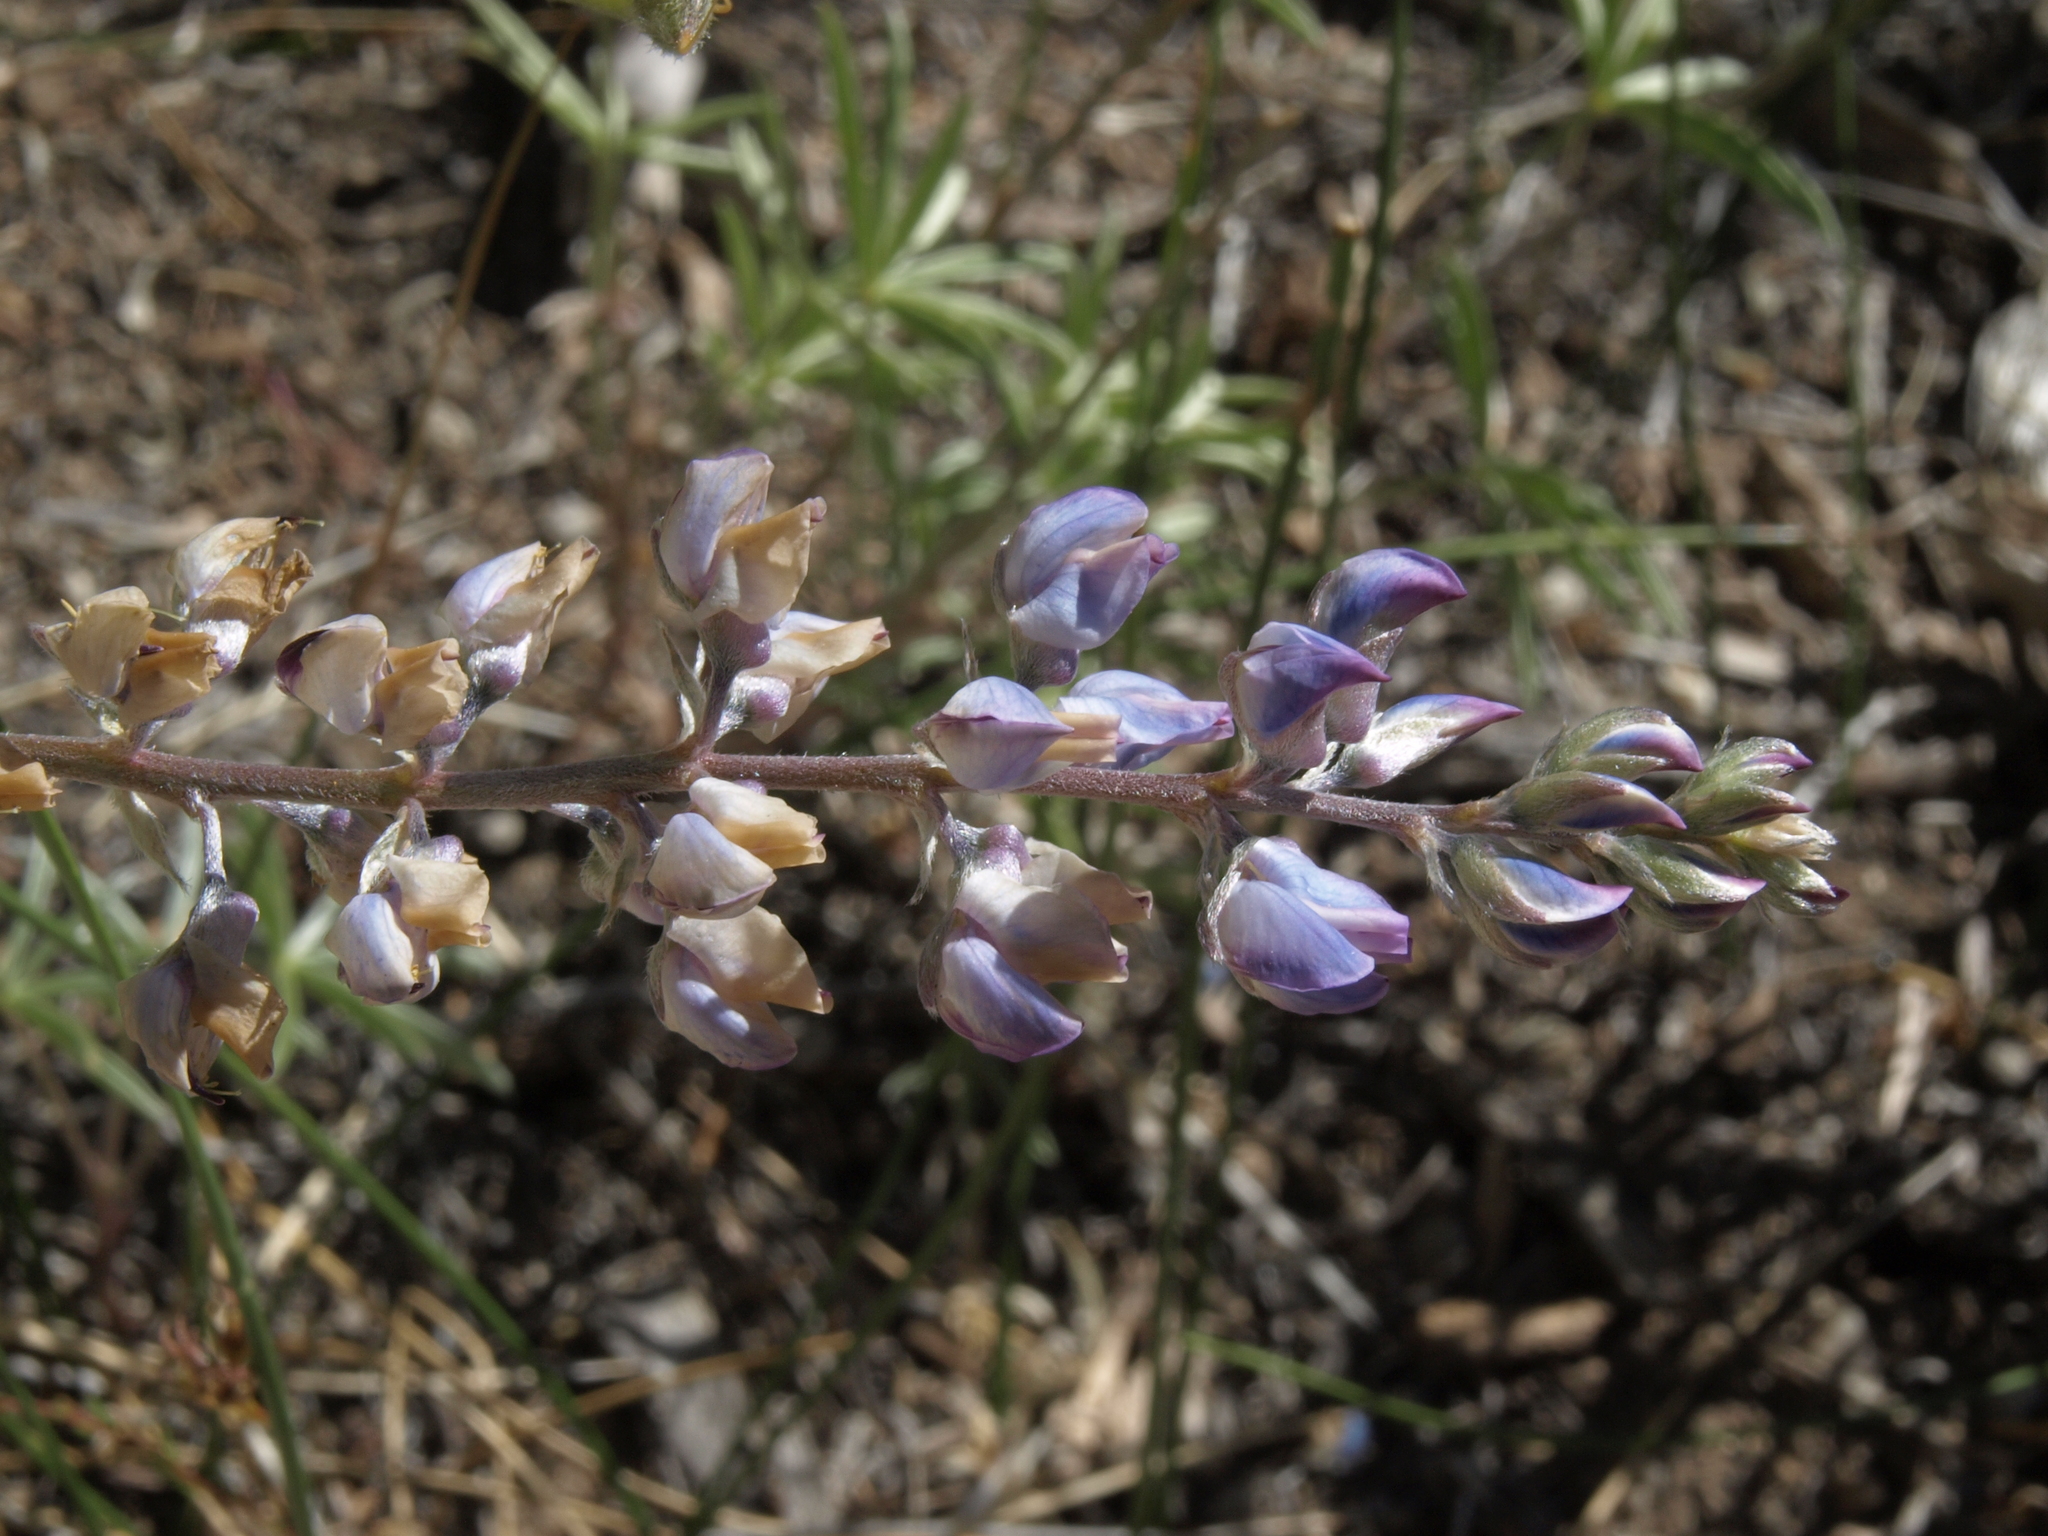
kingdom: Plantae
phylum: Tracheophyta
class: Magnoliopsida
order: Fabales
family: Fabaceae
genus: Lupinus
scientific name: Lupinus caudatus
